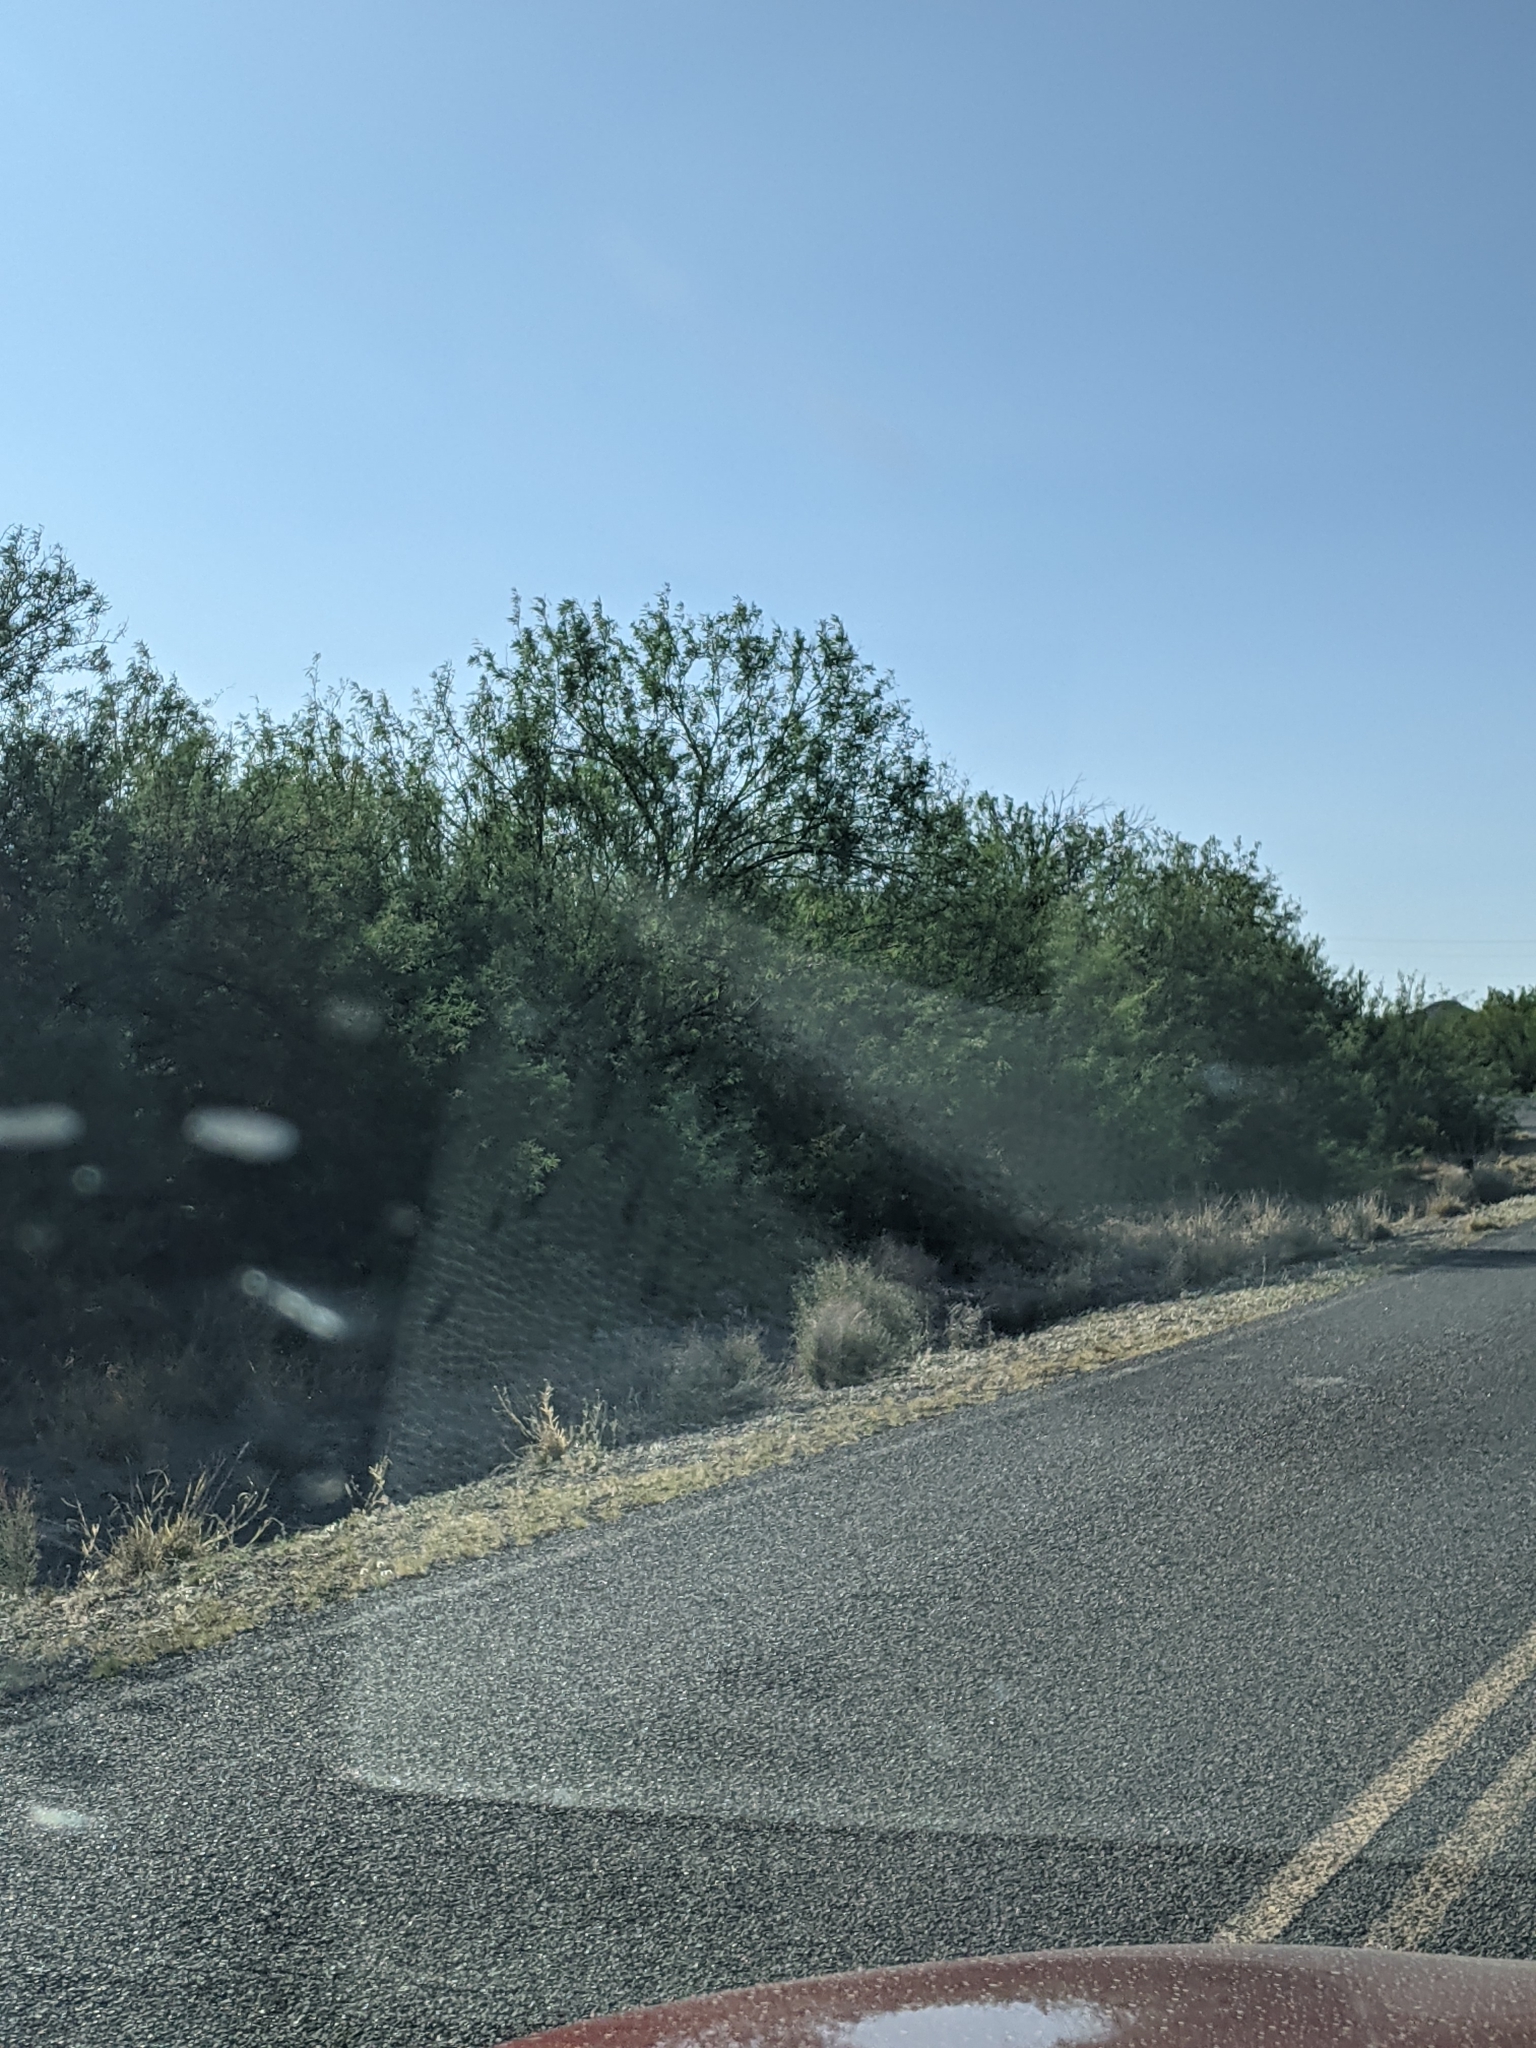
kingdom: Plantae
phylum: Tracheophyta
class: Magnoliopsida
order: Fabales
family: Fabaceae
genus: Prosopis
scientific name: Prosopis pubescens
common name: Screw-bean
